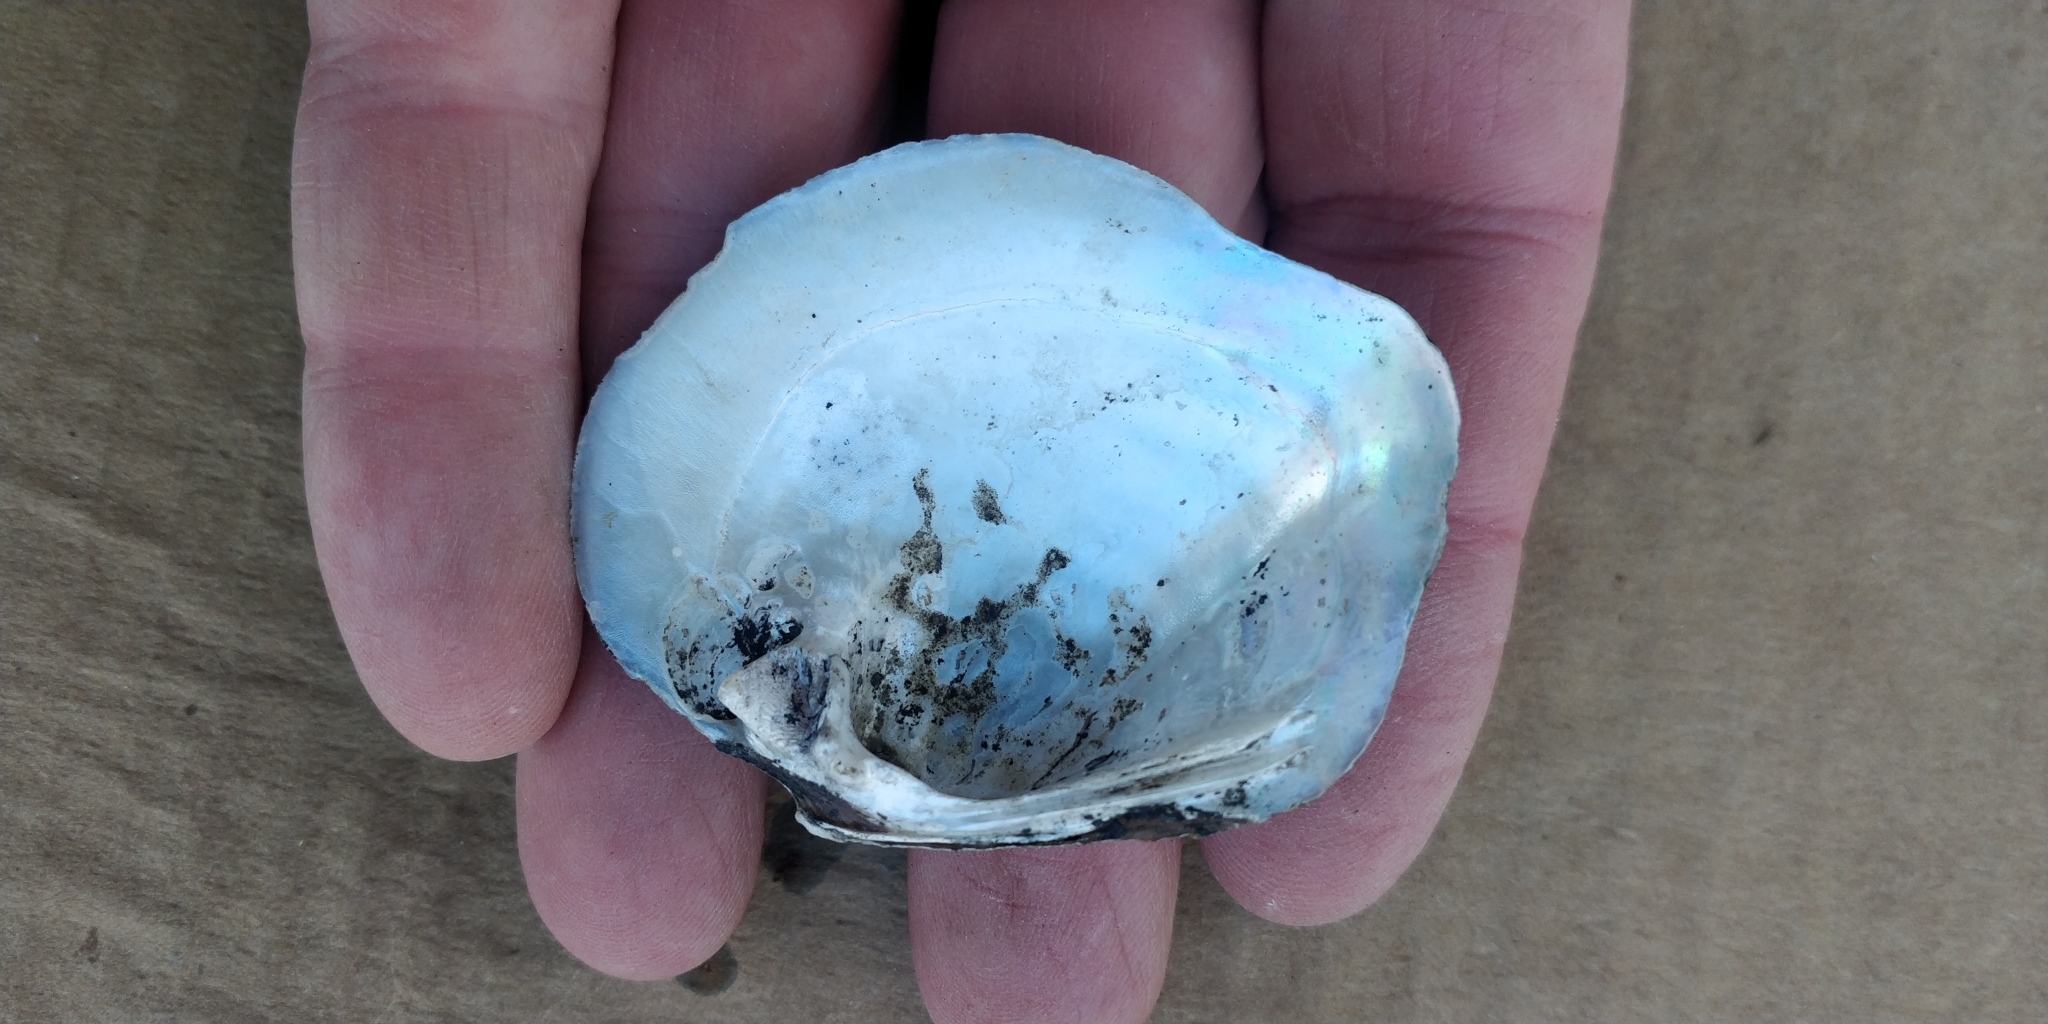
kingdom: Animalia
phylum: Mollusca
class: Bivalvia
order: Unionida
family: Unionidae
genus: Quadrula
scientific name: Quadrula quadrula
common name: Mapleleaf
